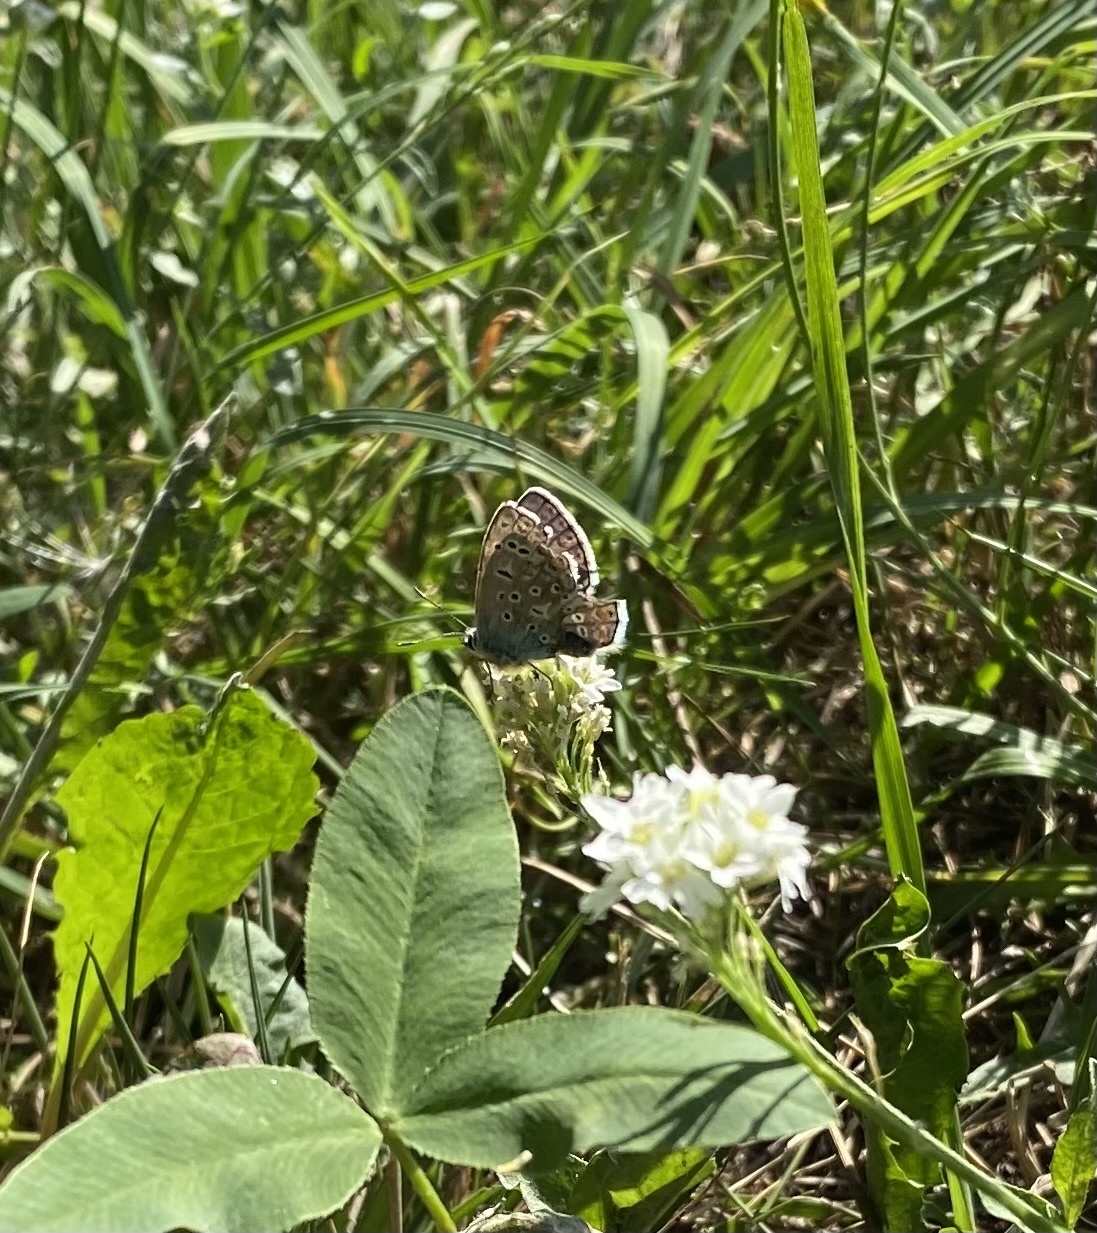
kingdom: Animalia
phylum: Arthropoda
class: Insecta
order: Lepidoptera
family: Lycaenidae
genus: Polyommatus
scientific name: Polyommatus icarus
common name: Common blue
